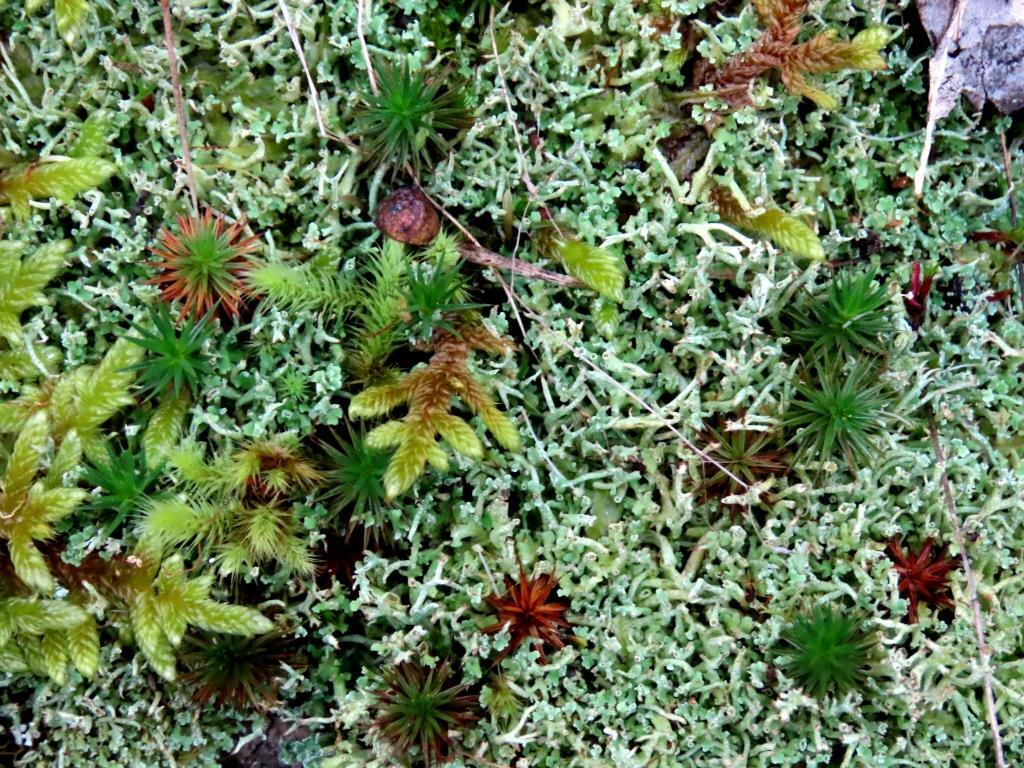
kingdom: Plantae
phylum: Bryophyta
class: Polytrichopsida
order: Polytrichales
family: Polytrichaceae
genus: Polytrichum
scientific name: Polytrichum juniperinum
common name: Juniper haircap moss
